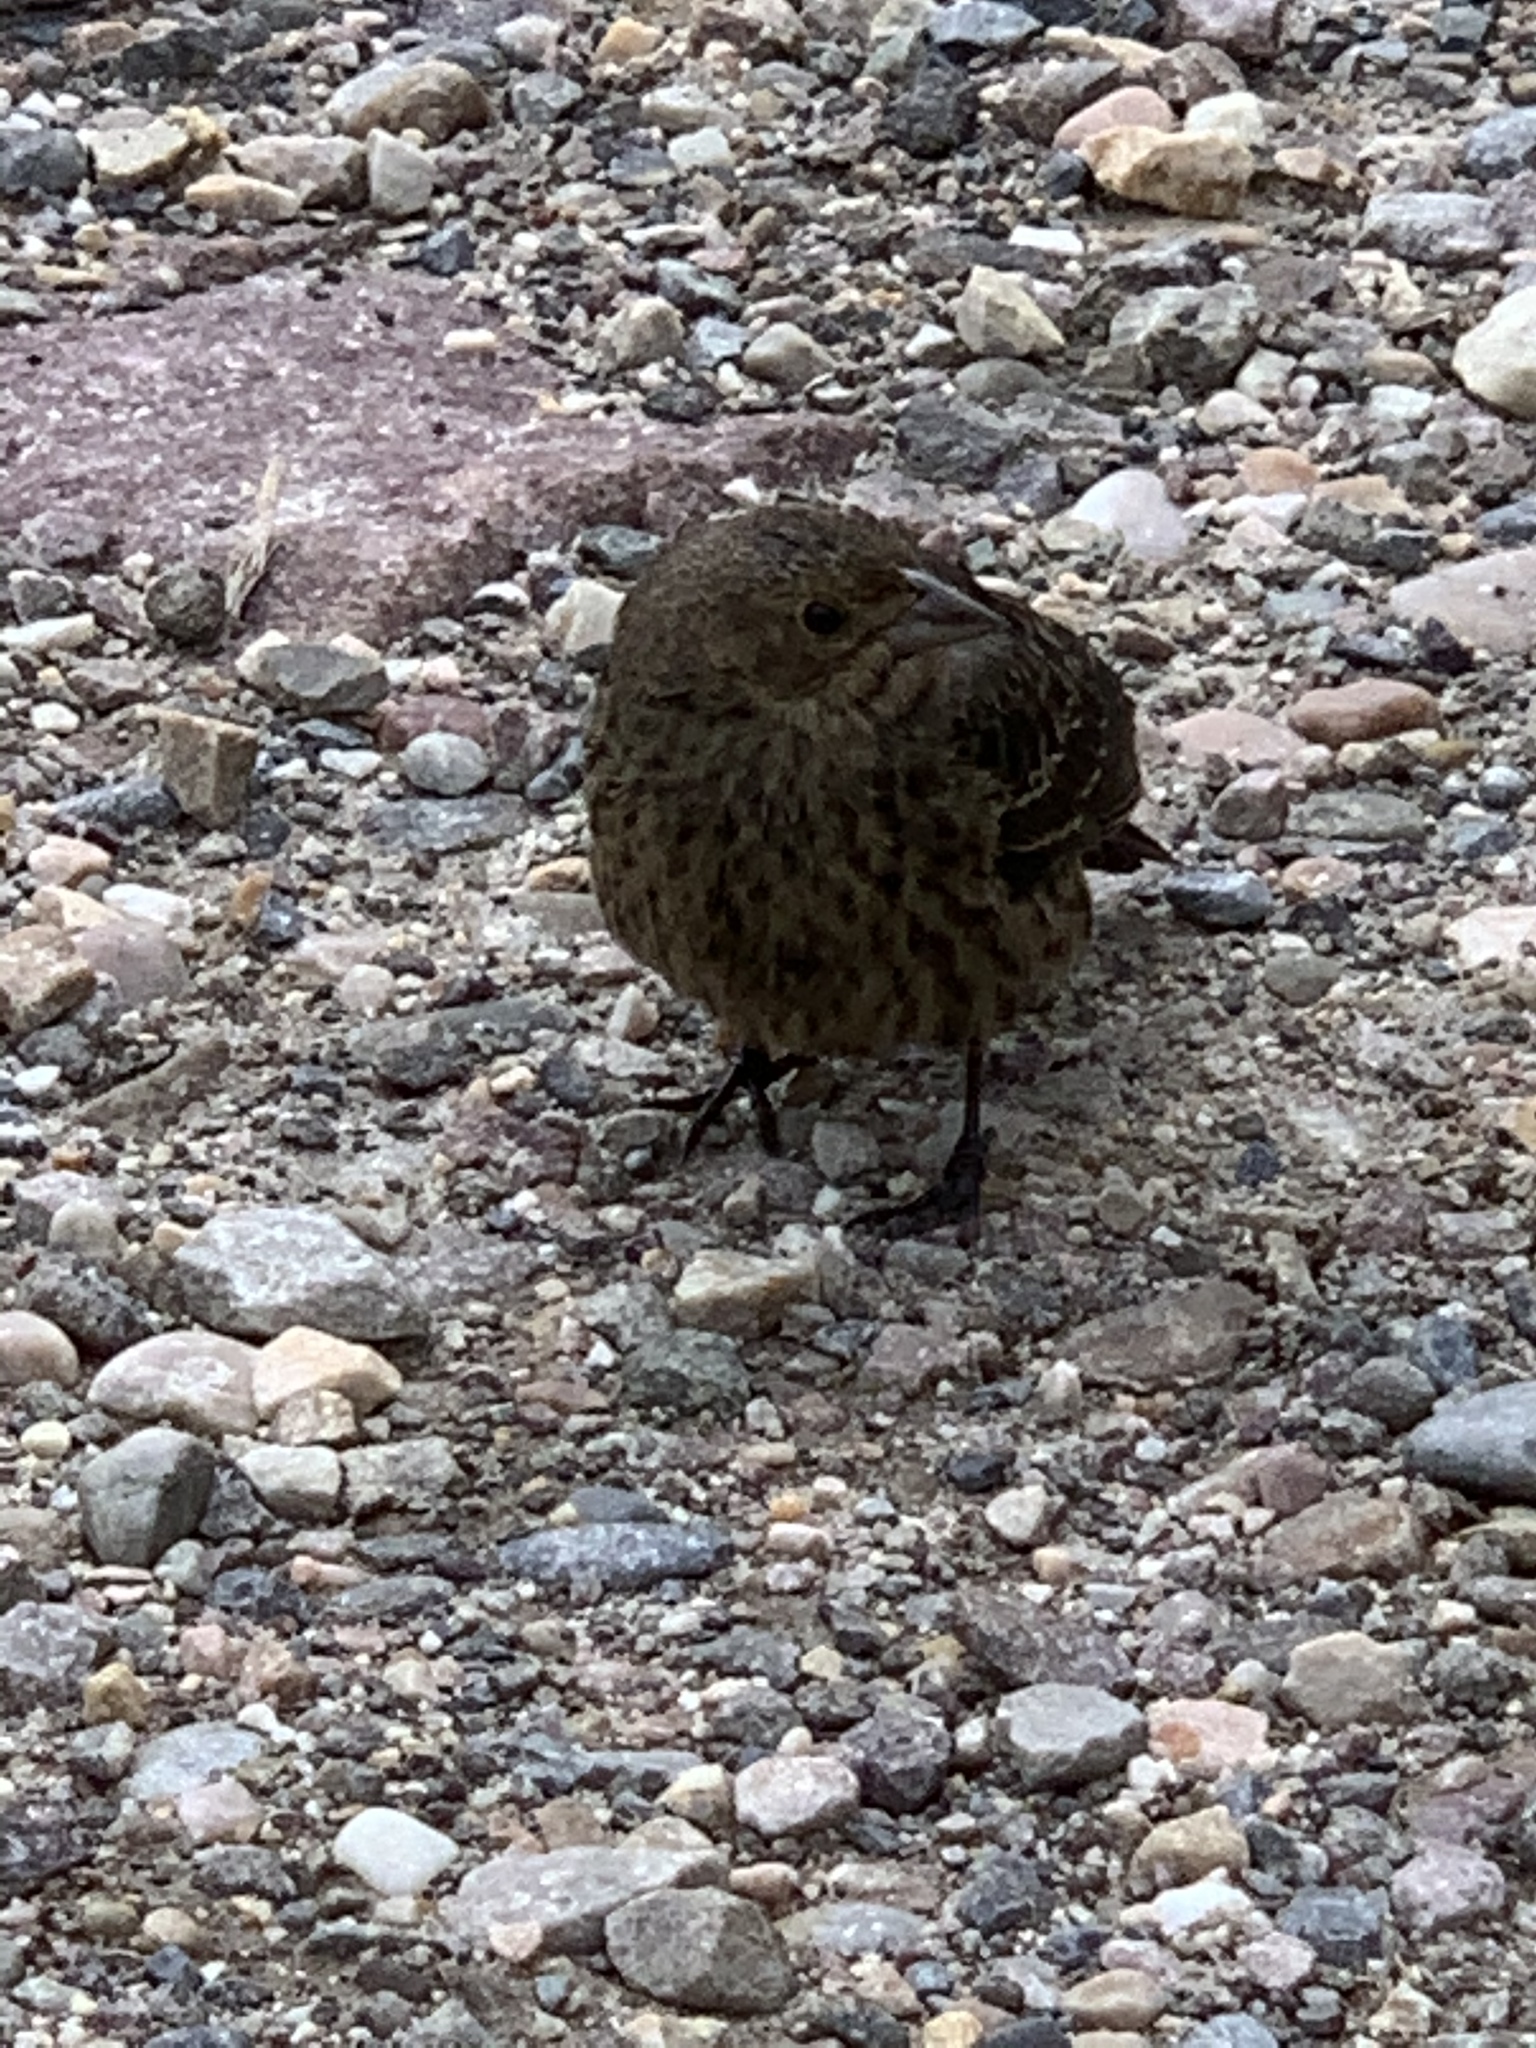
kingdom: Animalia
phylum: Chordata
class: Aves
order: Passeriformes
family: Icteridae
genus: Molothrus
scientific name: Molothrus ater
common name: Brown-headed cowbird
